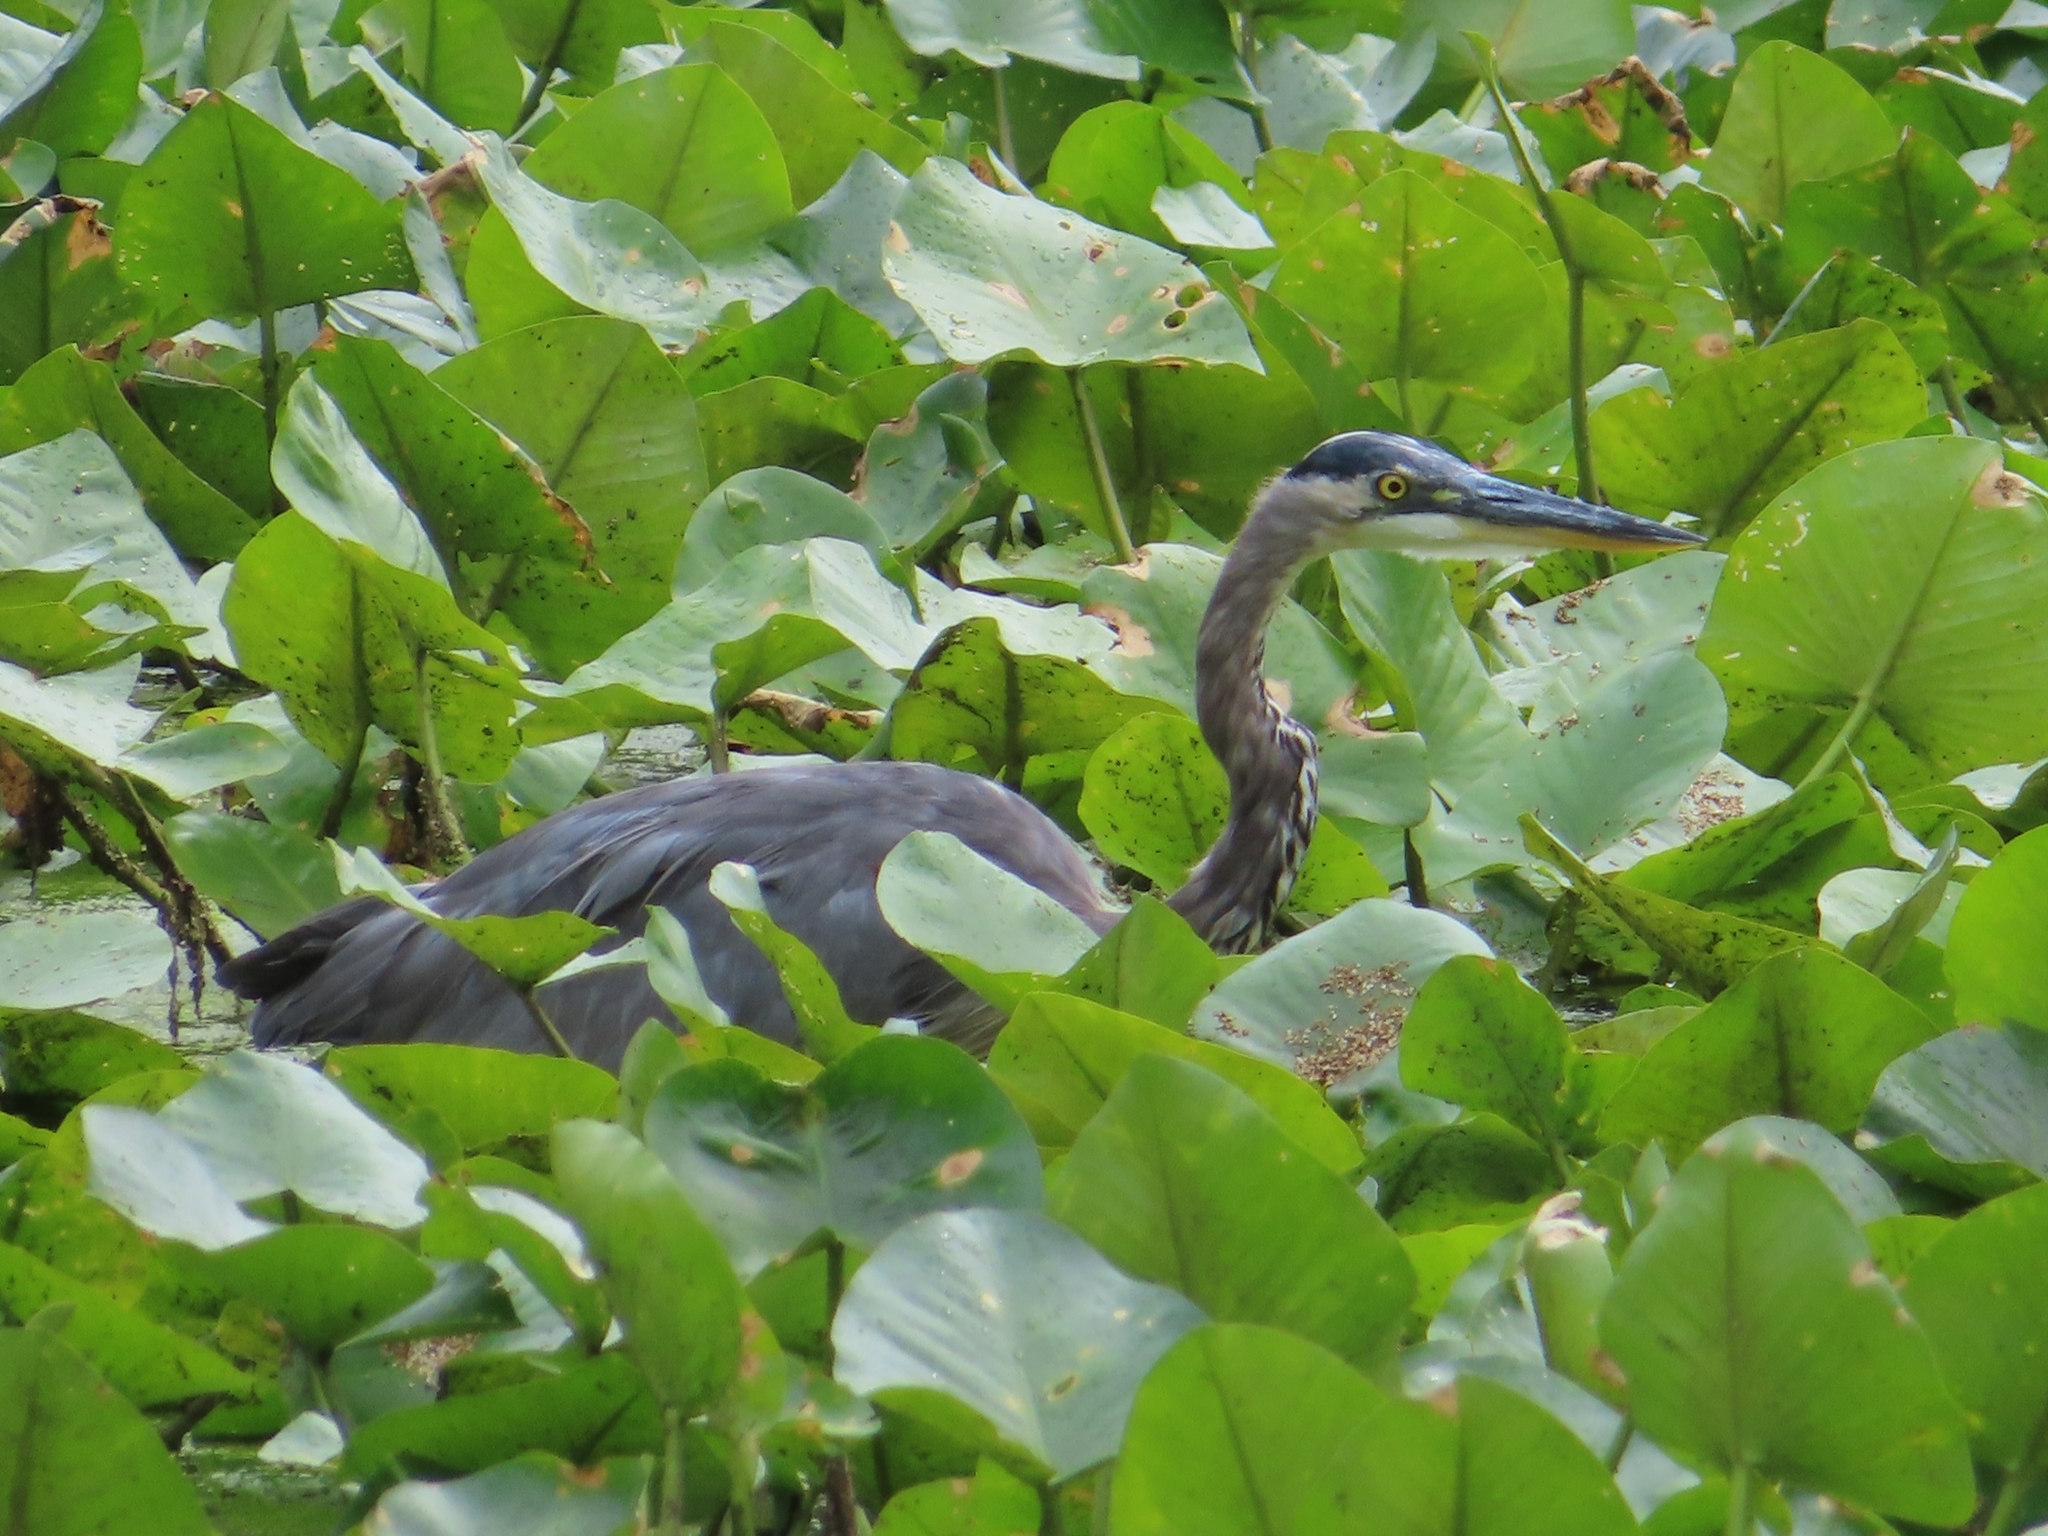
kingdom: Animalia
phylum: Chordata
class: Aves
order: Pelecaniformes
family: Ardeidae
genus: Ardea
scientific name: Ardea herodias
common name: Great blue heron
